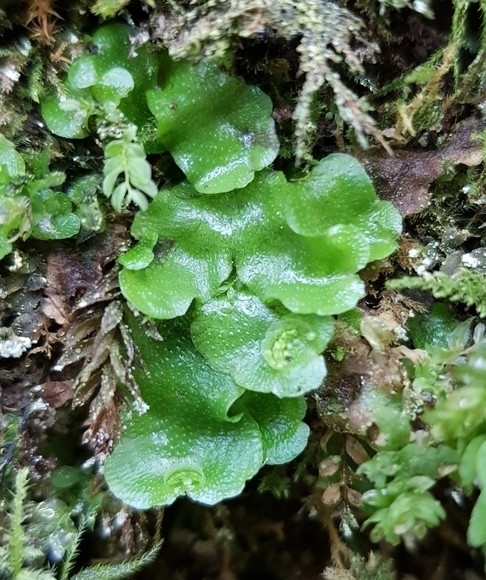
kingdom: Plantae
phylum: Marchantiophyta
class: Marchantiopsida
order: Lunulariales
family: Lunulariaceae
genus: Lunularia
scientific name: Lunularia cruciata
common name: Crescent-cup liverwort
